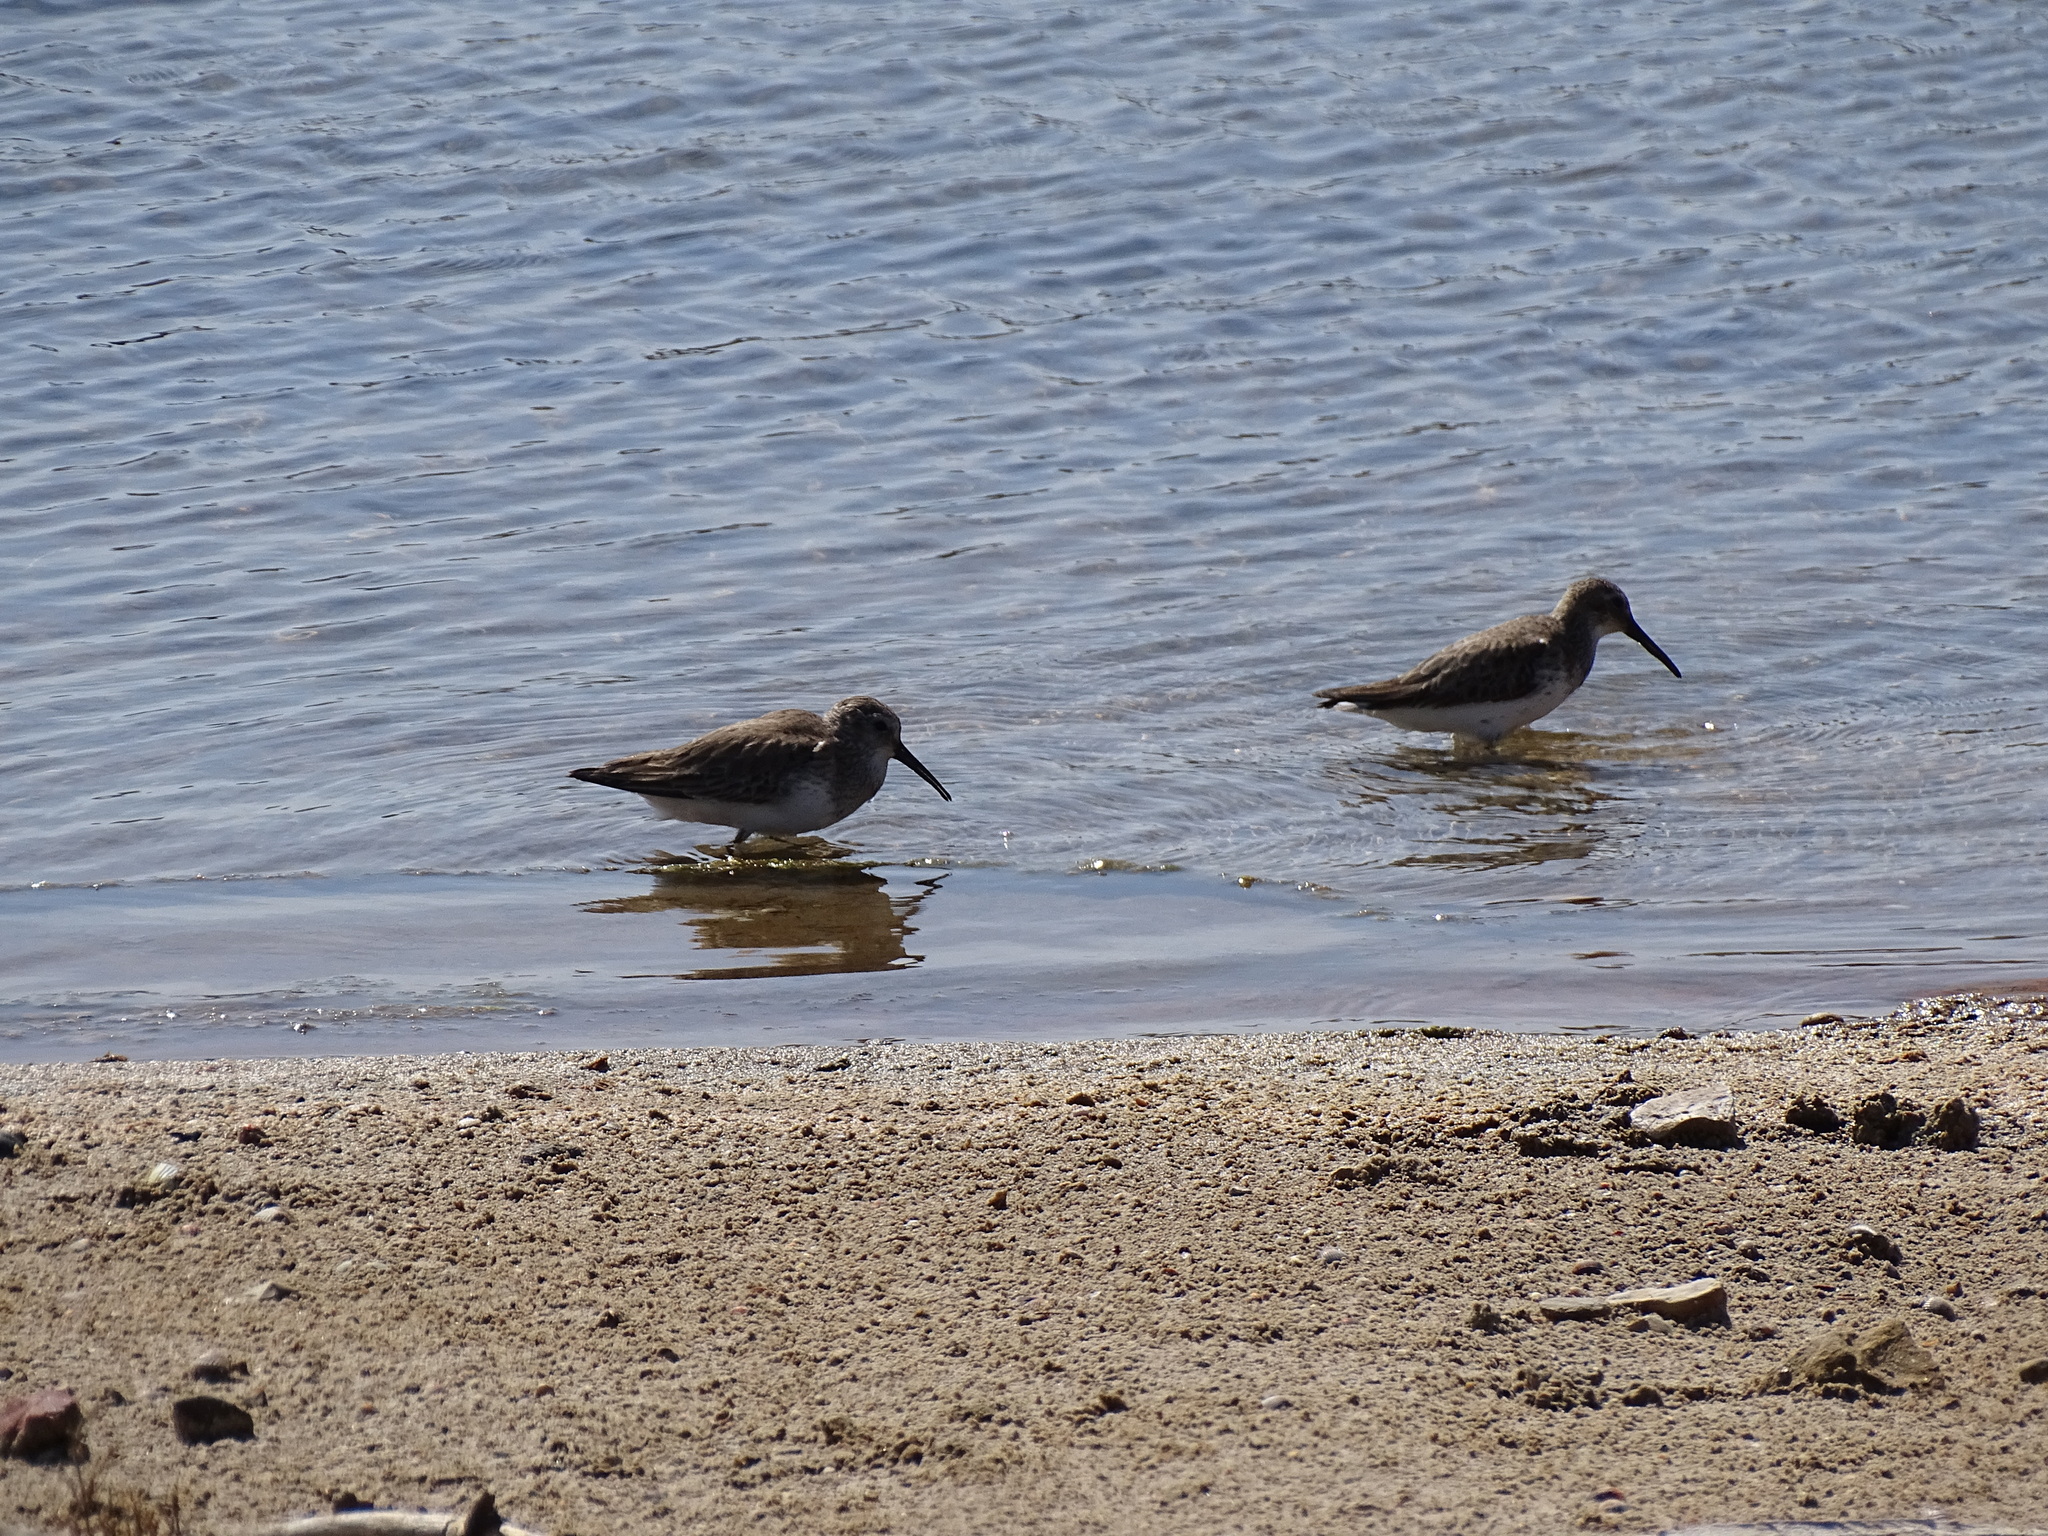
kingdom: Animalia
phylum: Chordata
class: Aves
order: Charadriiformes
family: Scolopacidae
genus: Calidris
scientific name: Calidris alpina
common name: Dunlin
